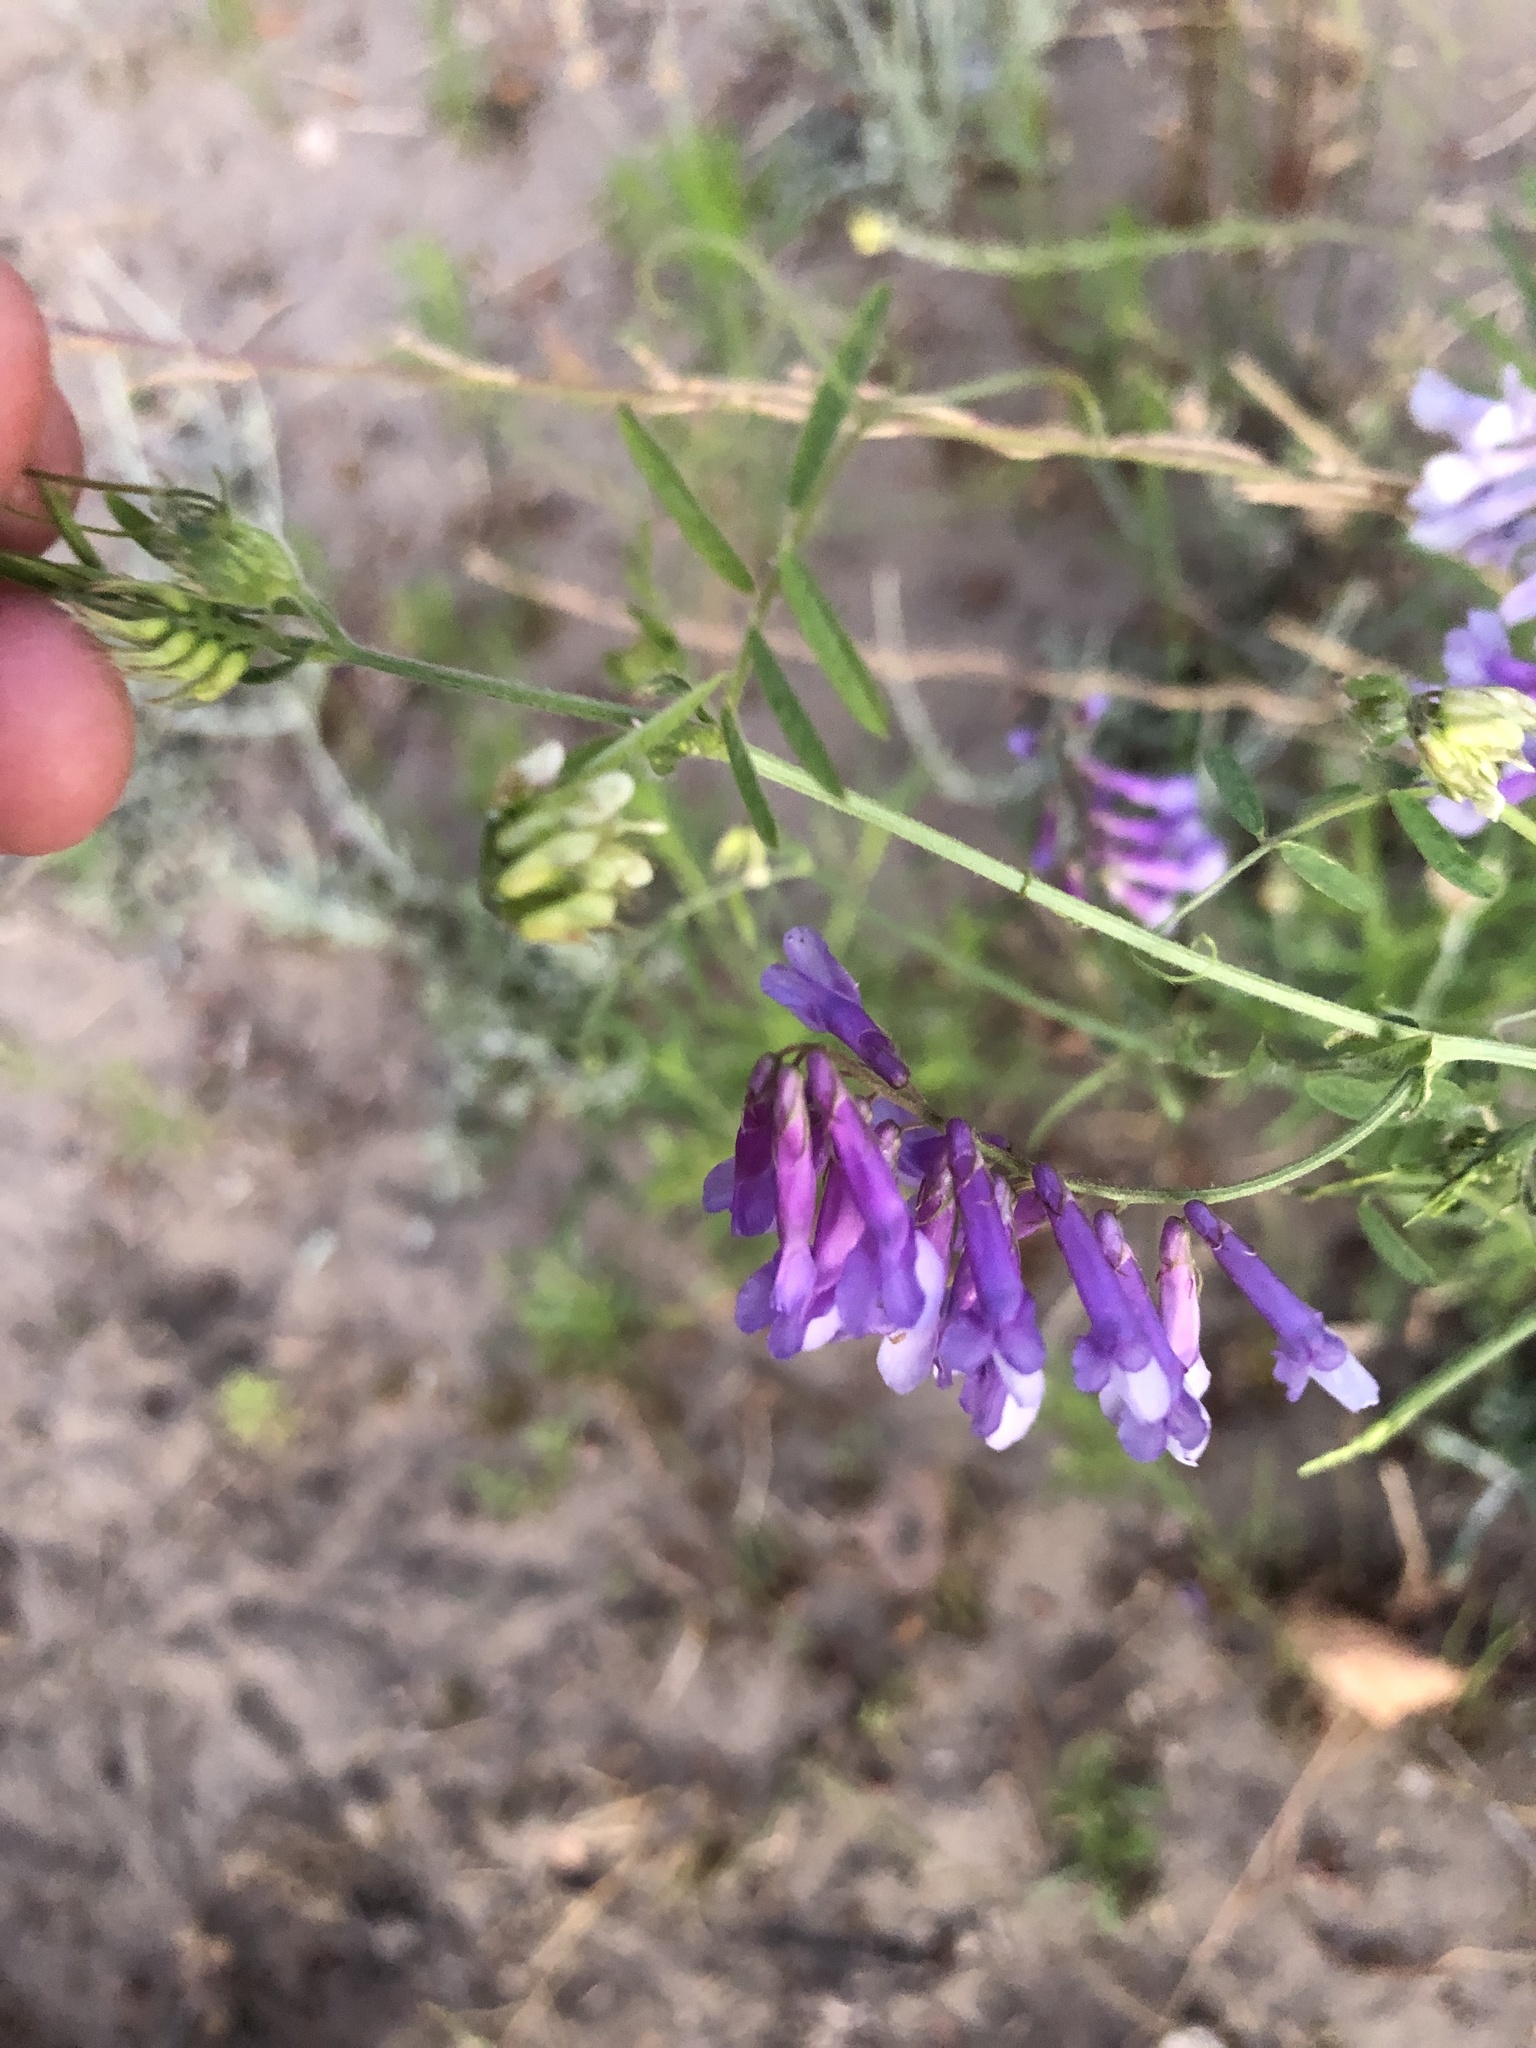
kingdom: Plantae
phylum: Tracheophyta
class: Magnoliopsida
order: Fabales
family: Fabaceae
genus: Vicia
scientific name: Vicia villosa
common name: Fodder vetch
